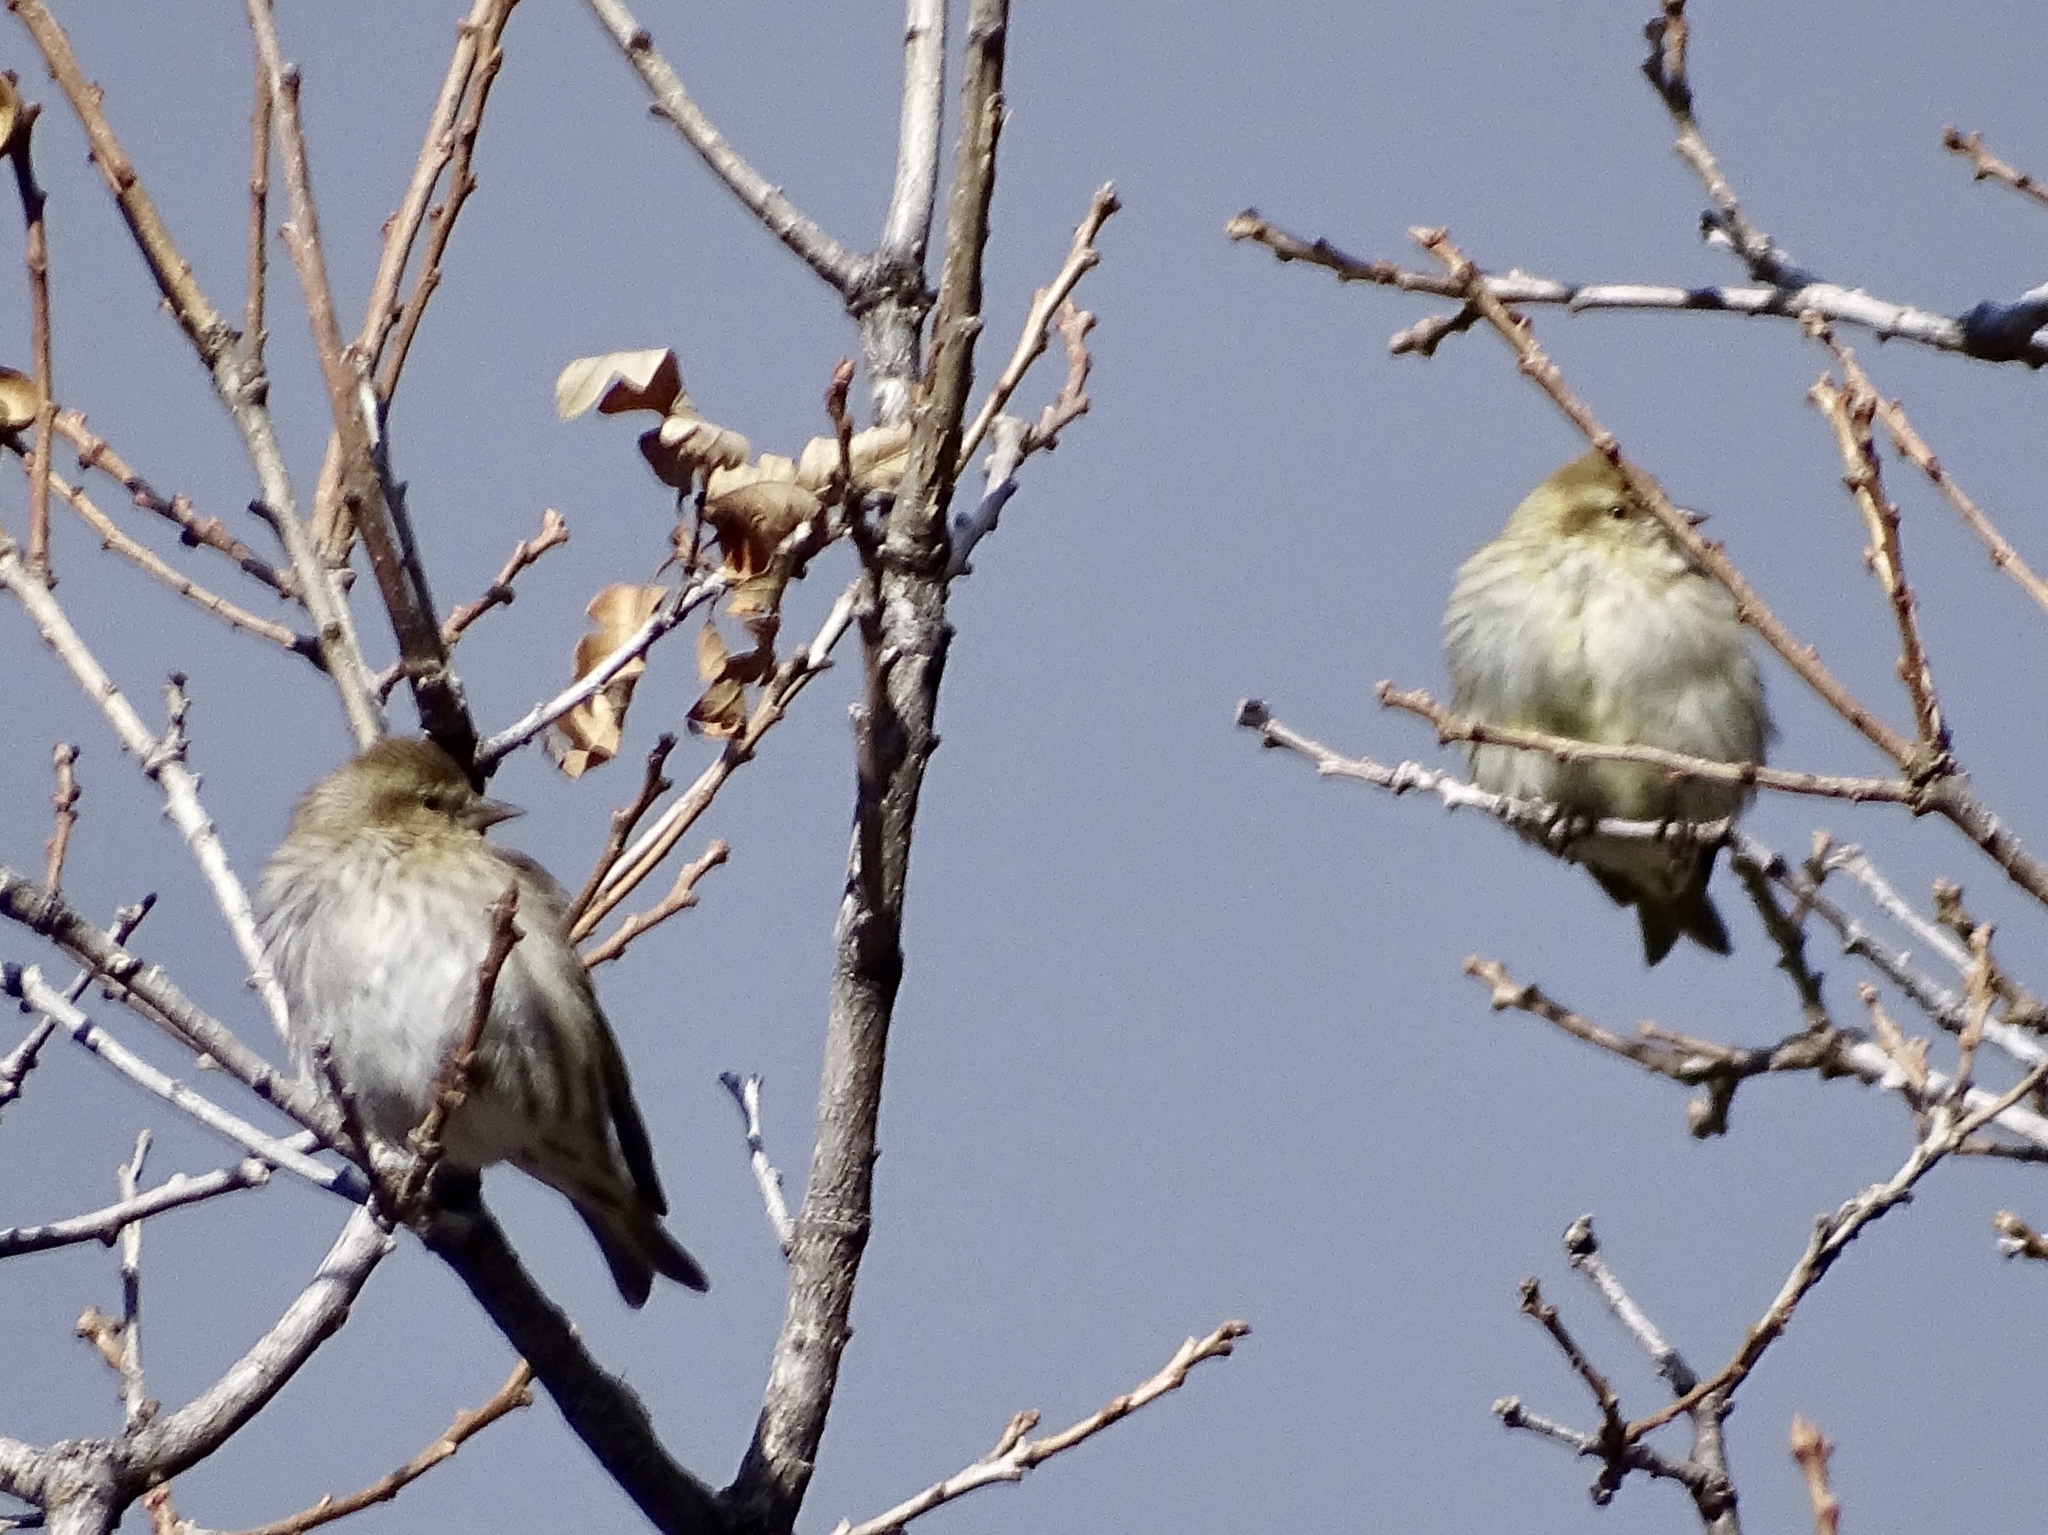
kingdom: Animalia
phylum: Chordata
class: Aves
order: Passeriformes
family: Fringillidae
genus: Spinus
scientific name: Spinus pinus
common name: Pine siskin
